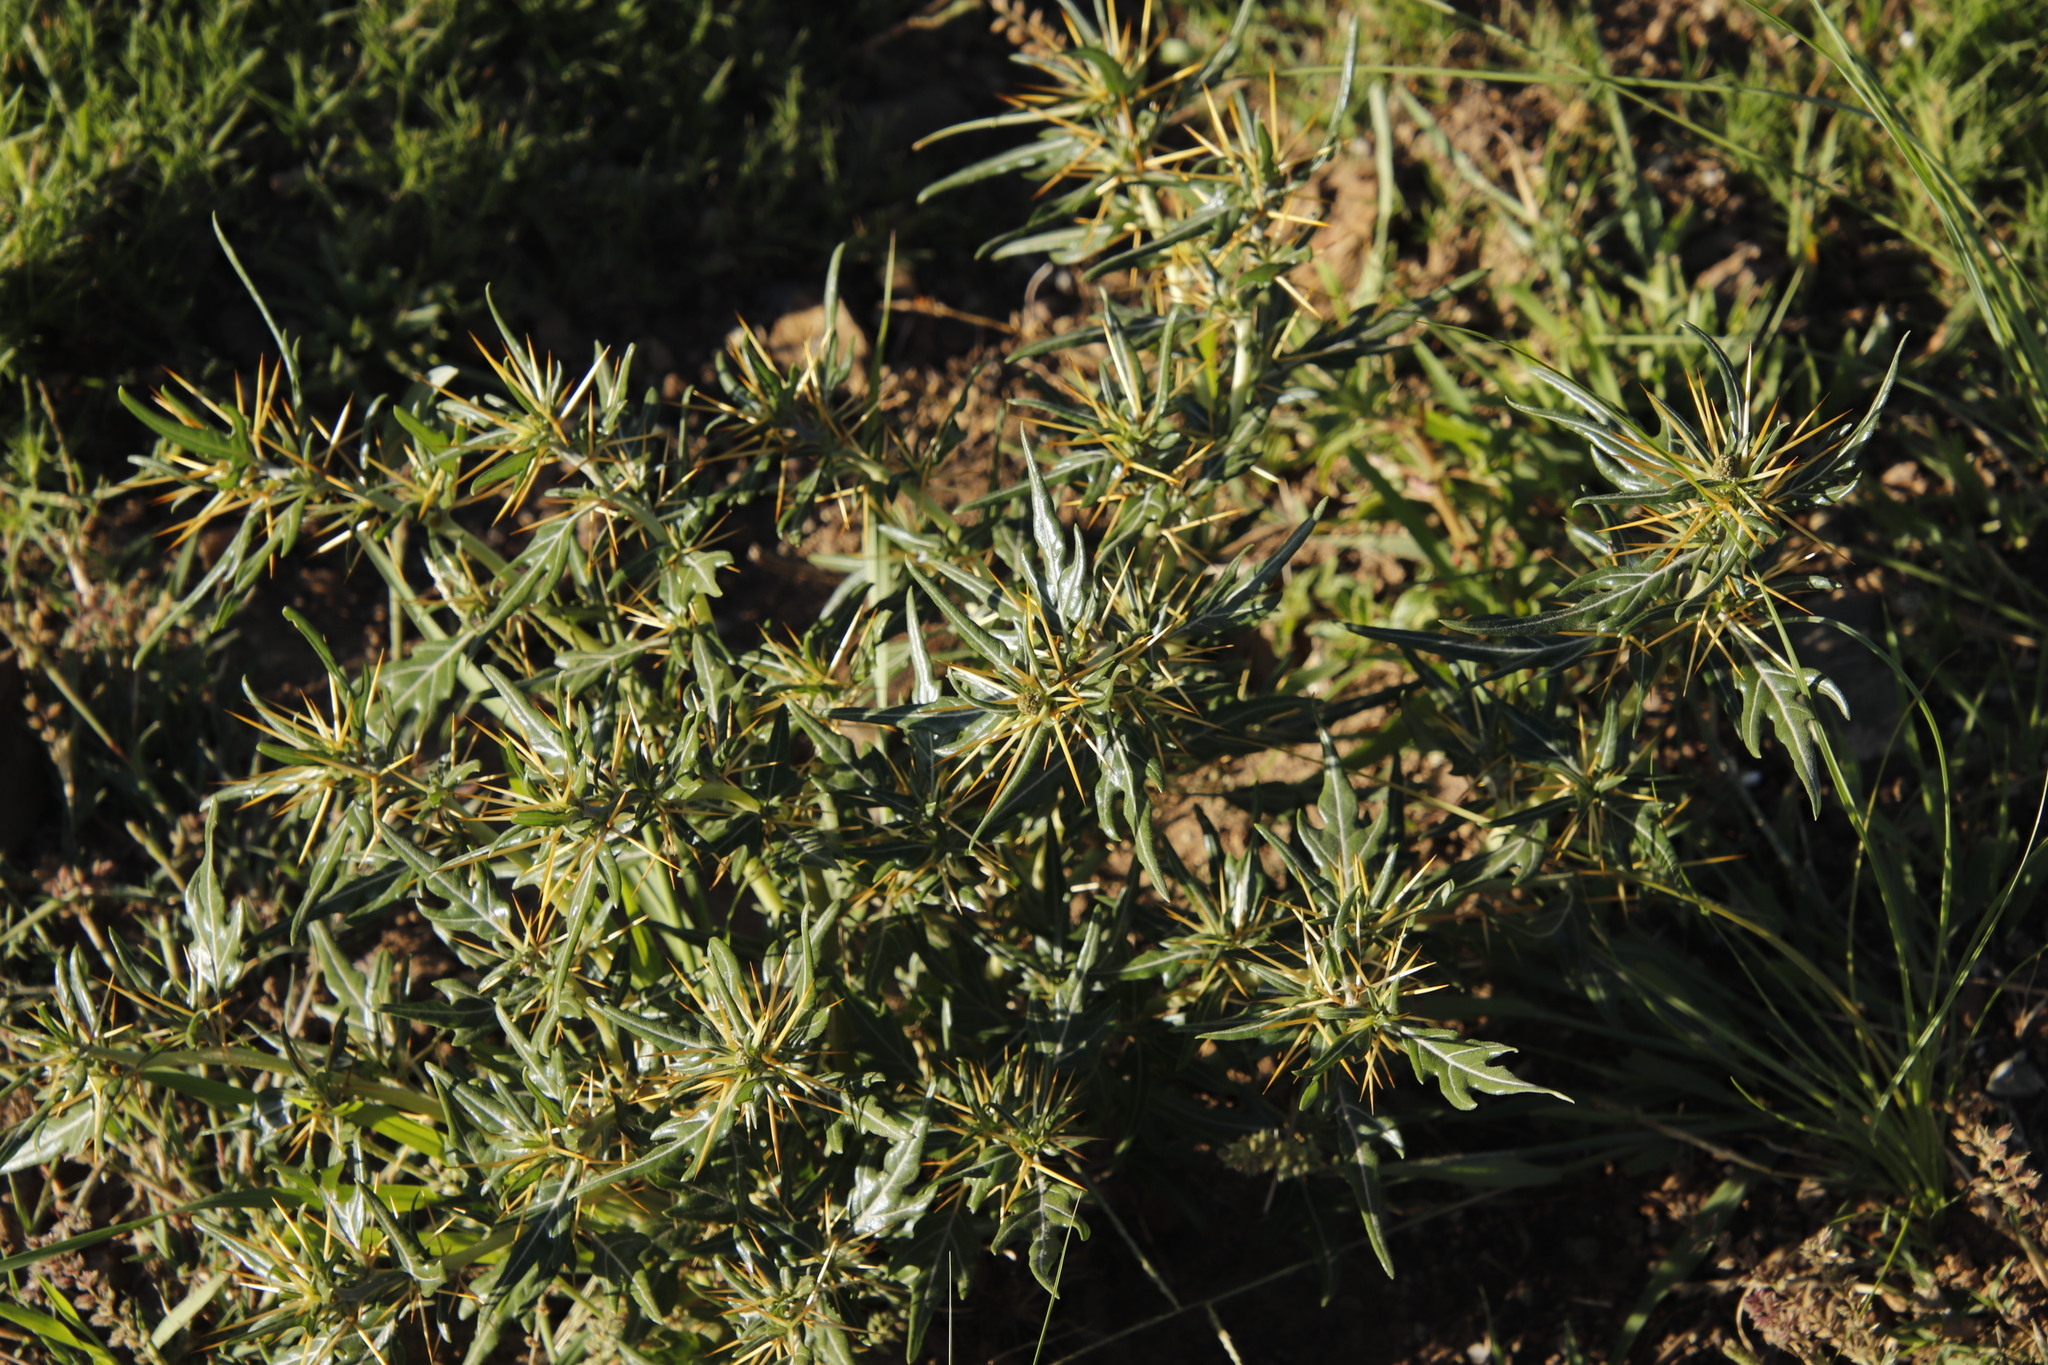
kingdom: Plantae
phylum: Tracheophyta
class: Magnoliopsida
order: Asterales
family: Asteraceae
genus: Xanthium
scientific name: Xanthium spinosum
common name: Spiny cocklebur
